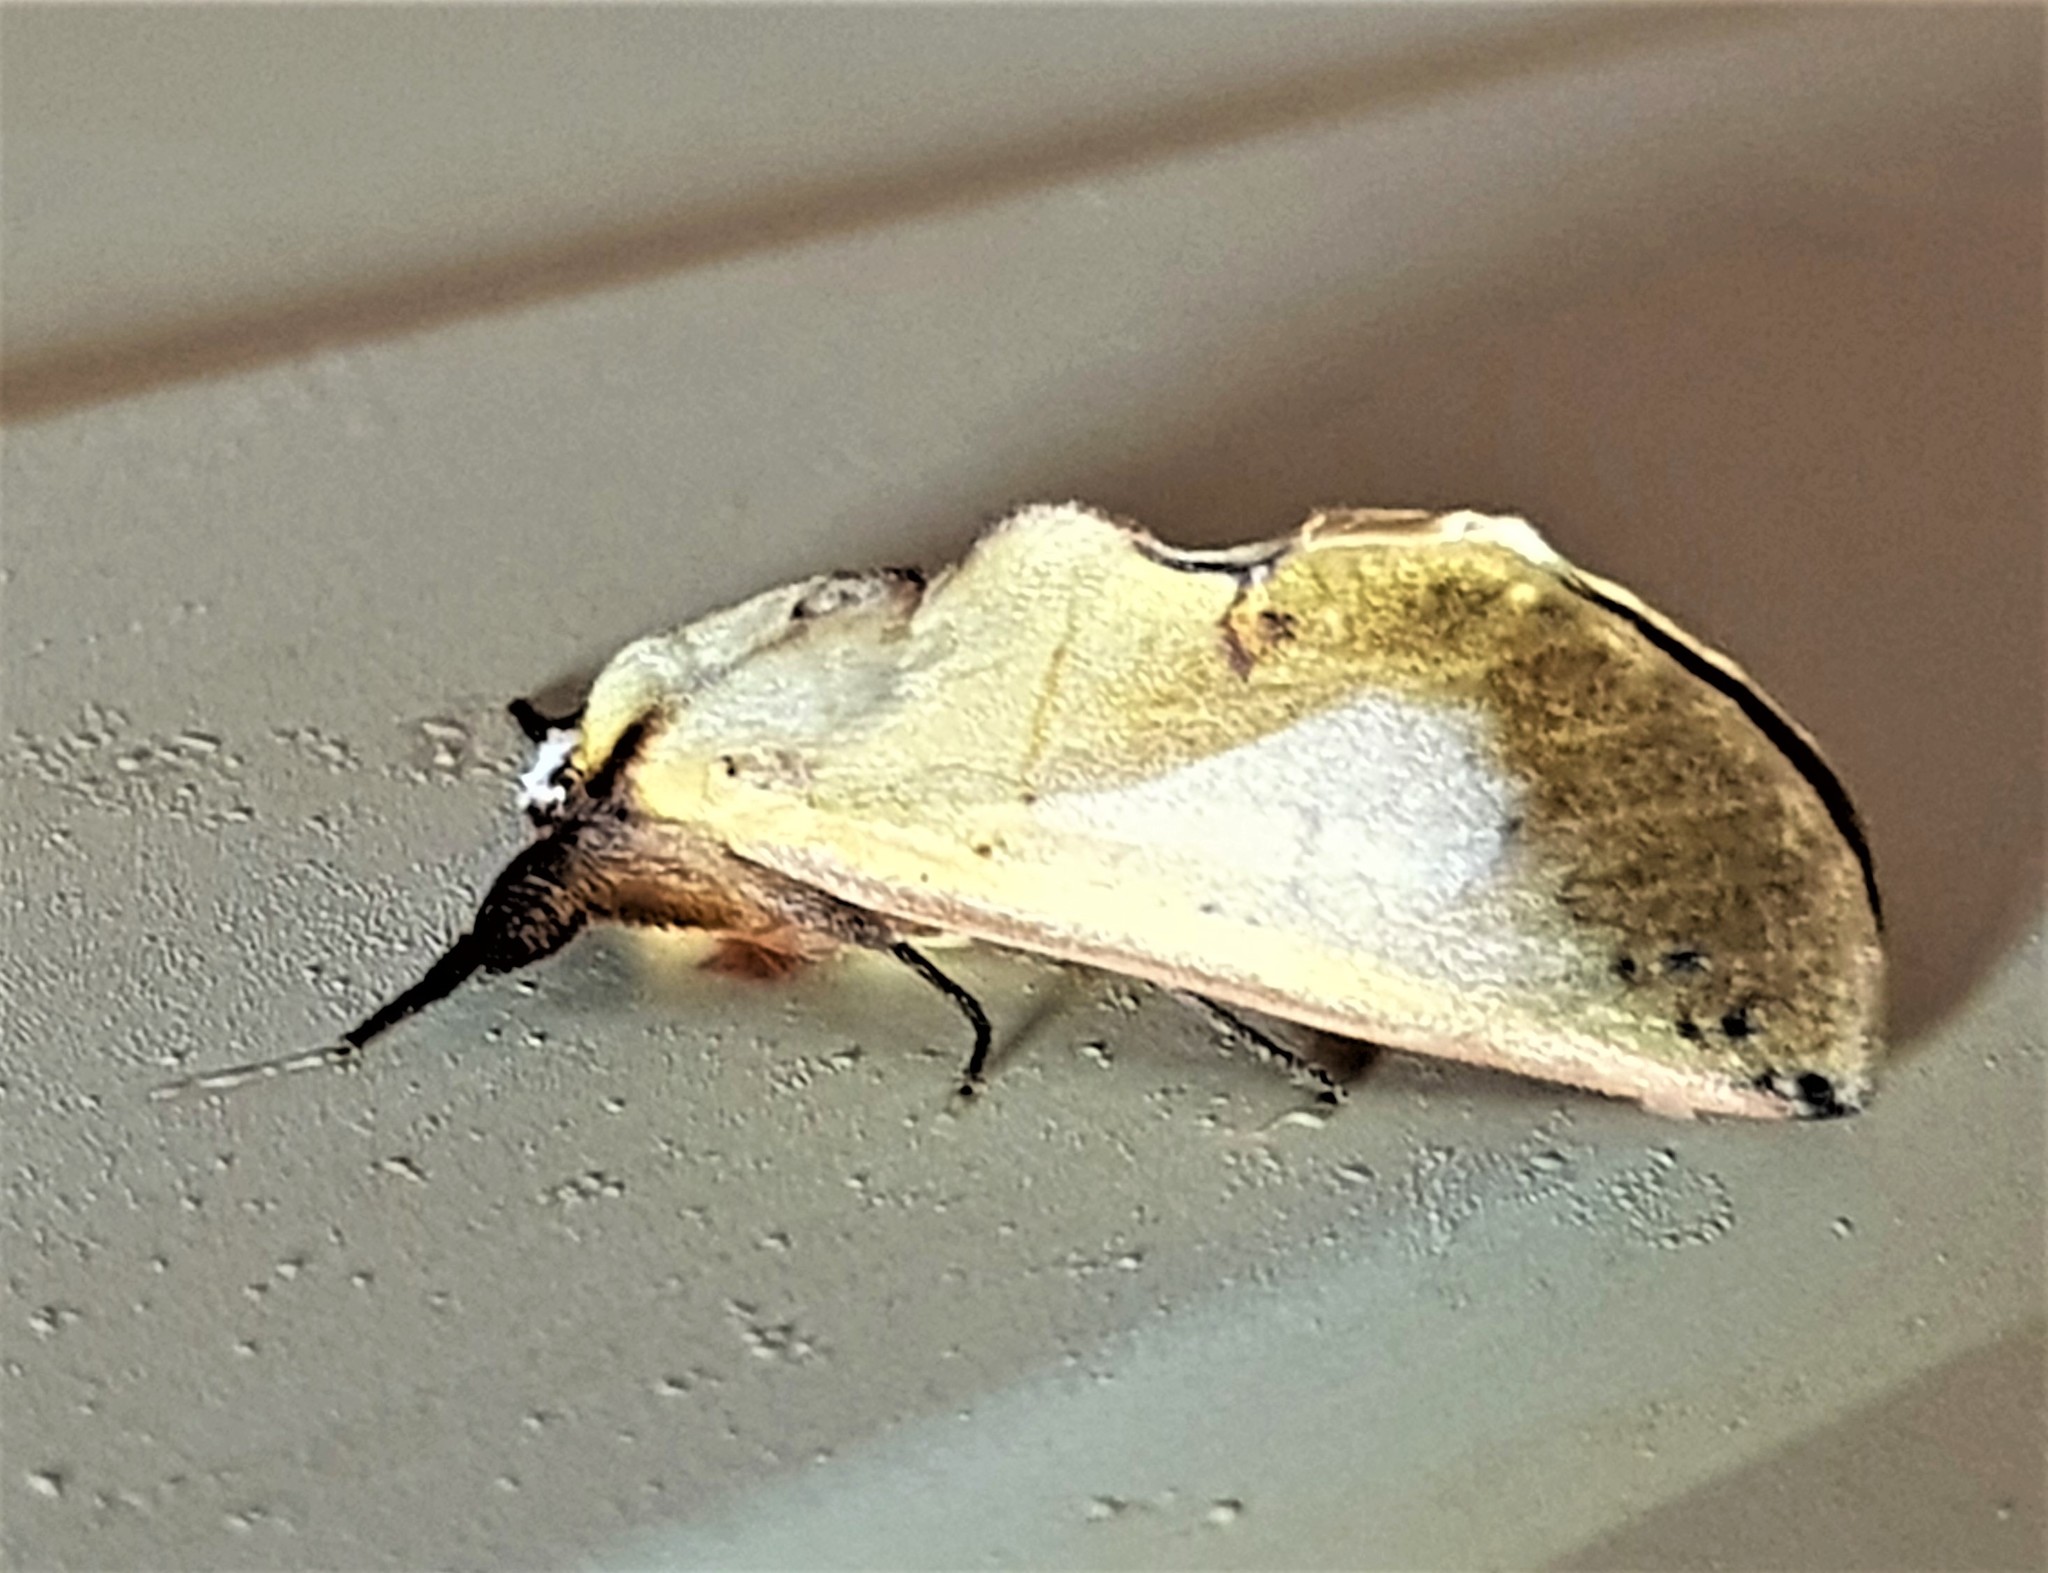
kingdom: Animalia
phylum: Arthropoda
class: Insecta
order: Lepidoptera
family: Notodontidae
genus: Hemiceras
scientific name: Hemiceras metallescens
